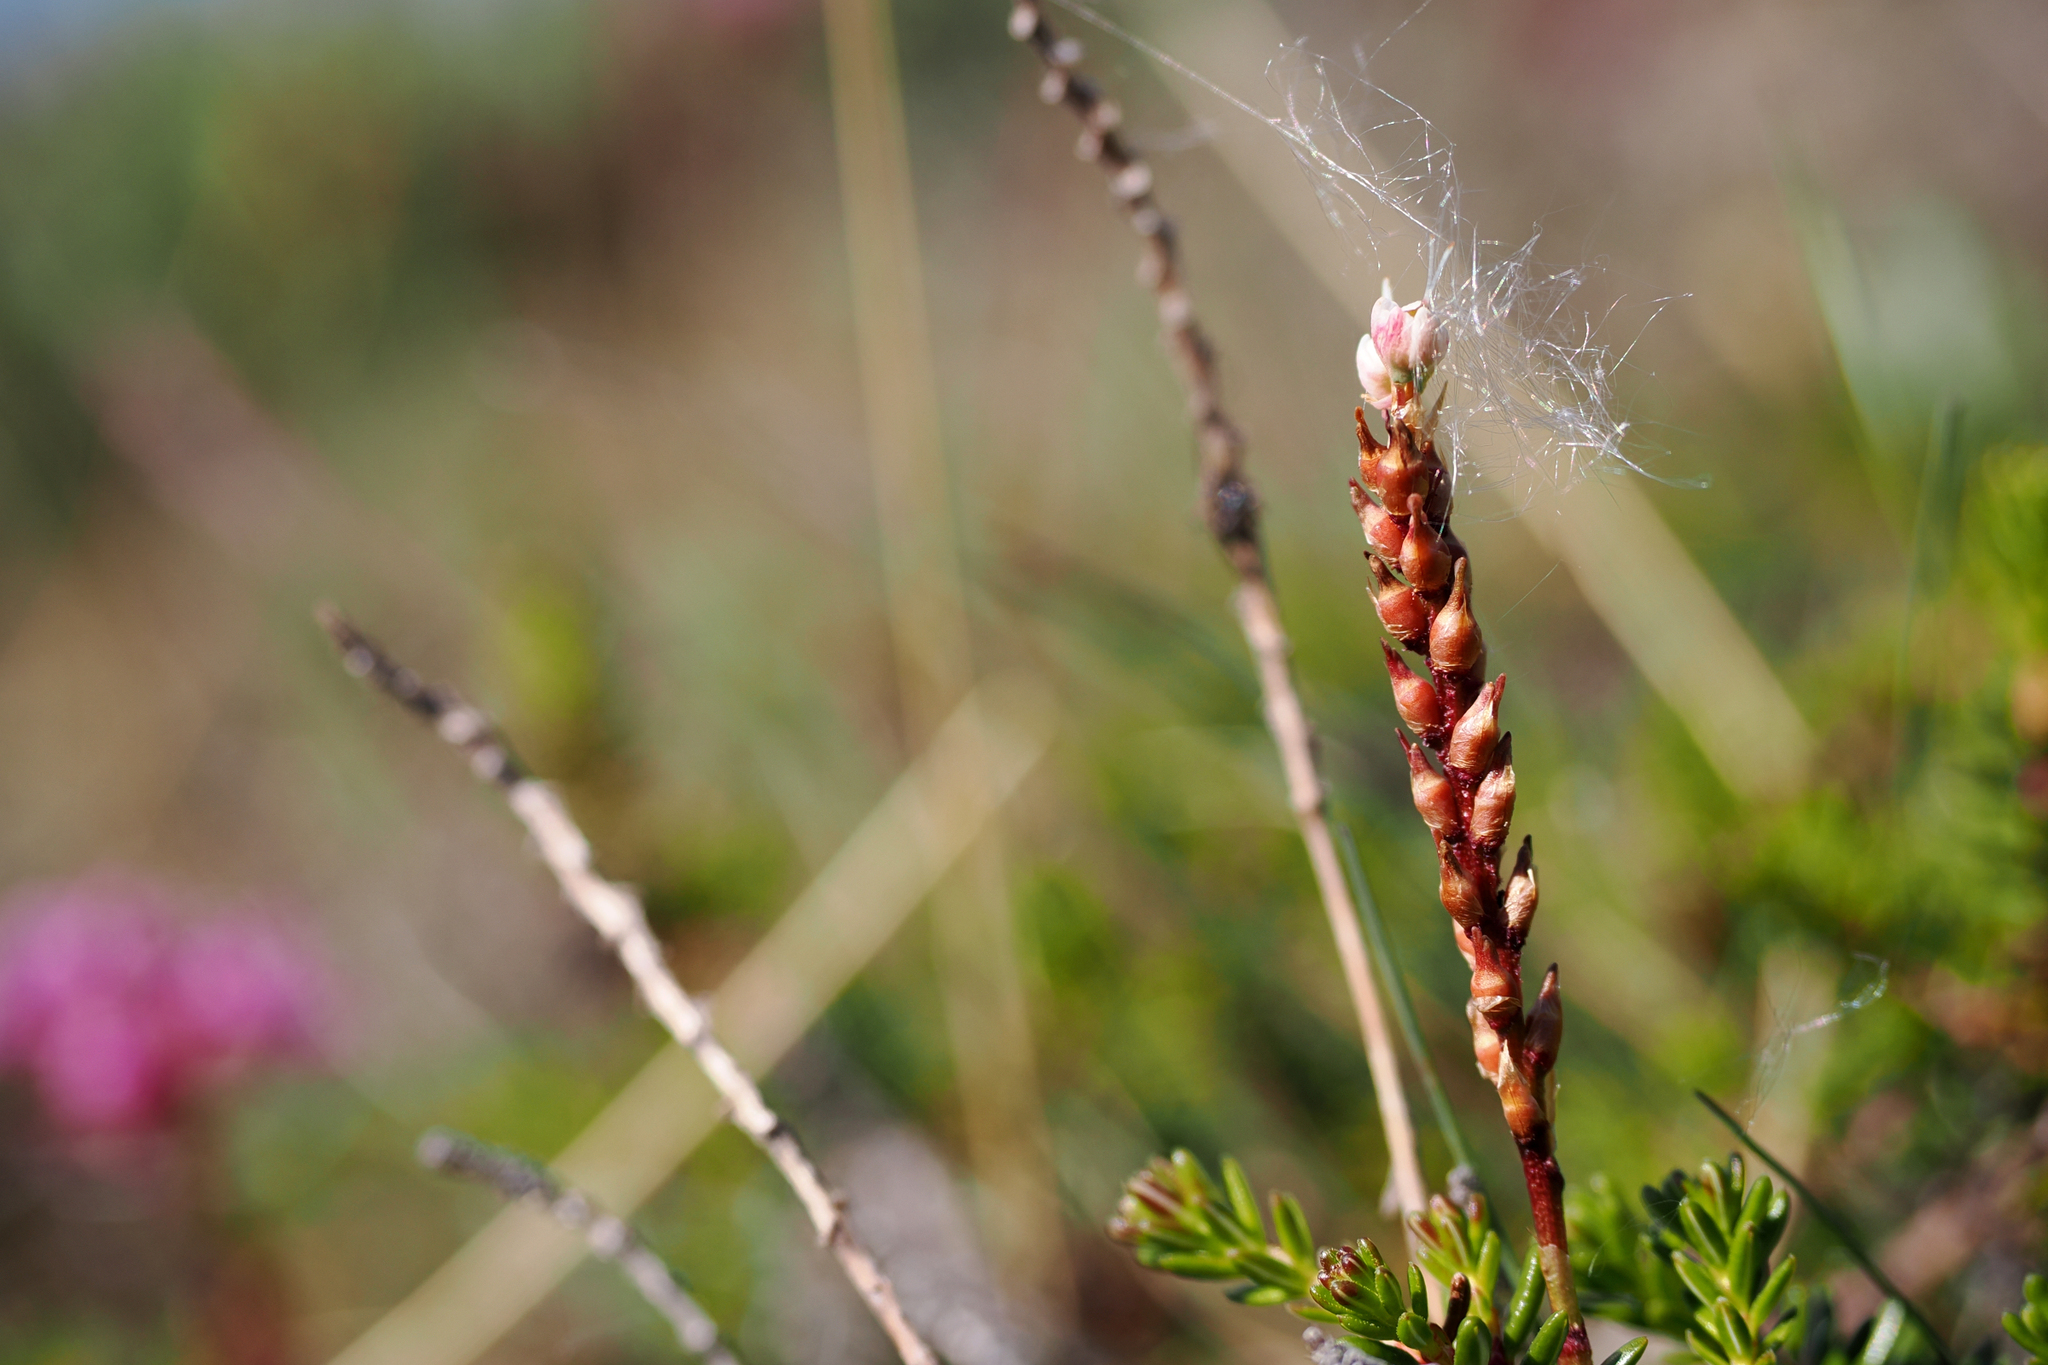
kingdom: Plantae
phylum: Tracheophyta
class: Magnoliopsida
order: Caryophyllales
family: Polygonaceae
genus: Bistorta
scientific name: Bistorta vivipara
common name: Alpine bistort
